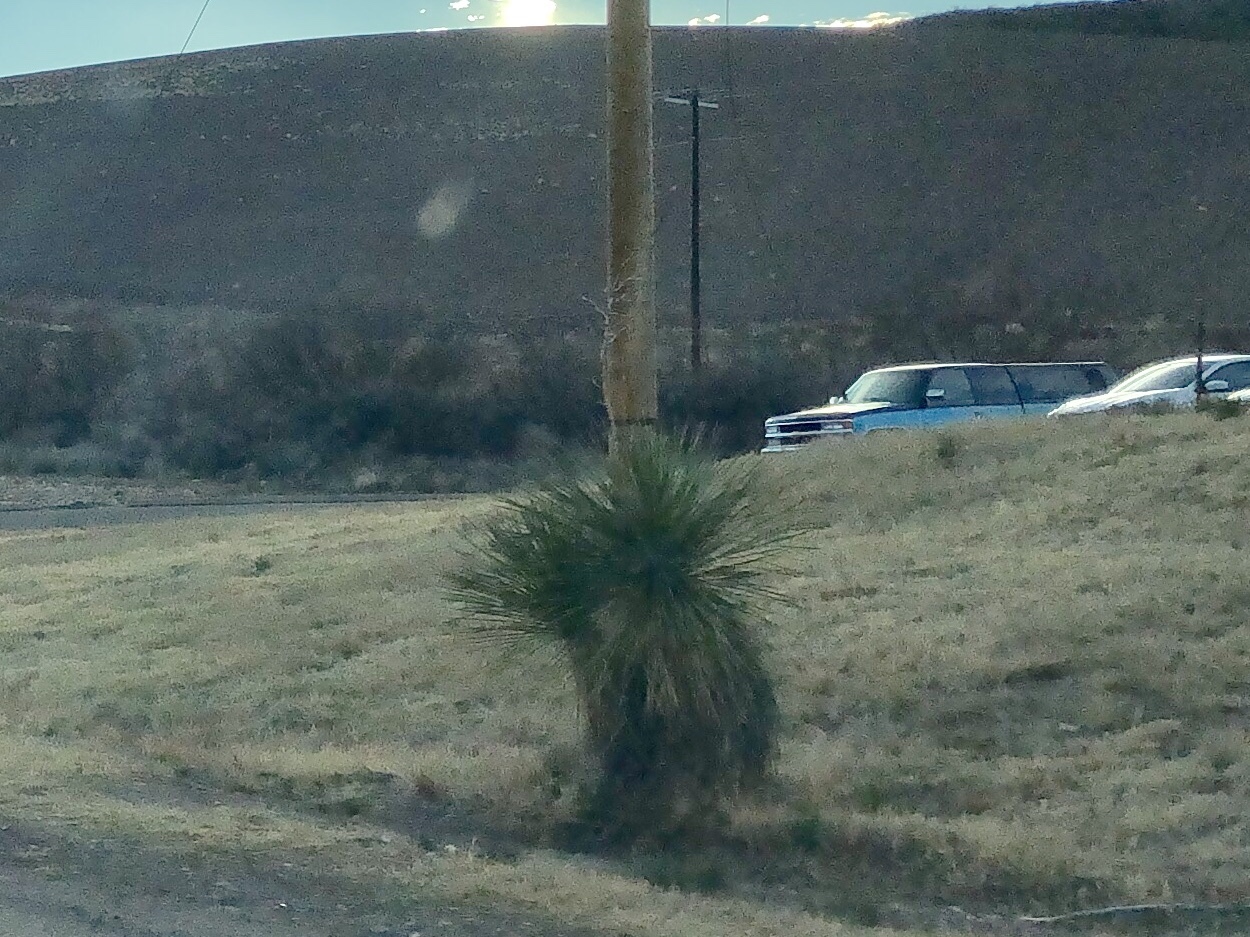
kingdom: Plantae
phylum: Tracheophyta
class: Liliopsida
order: Asparagales
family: Asparagaceae
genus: Yucca
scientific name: Yucca elata
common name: Palmella
